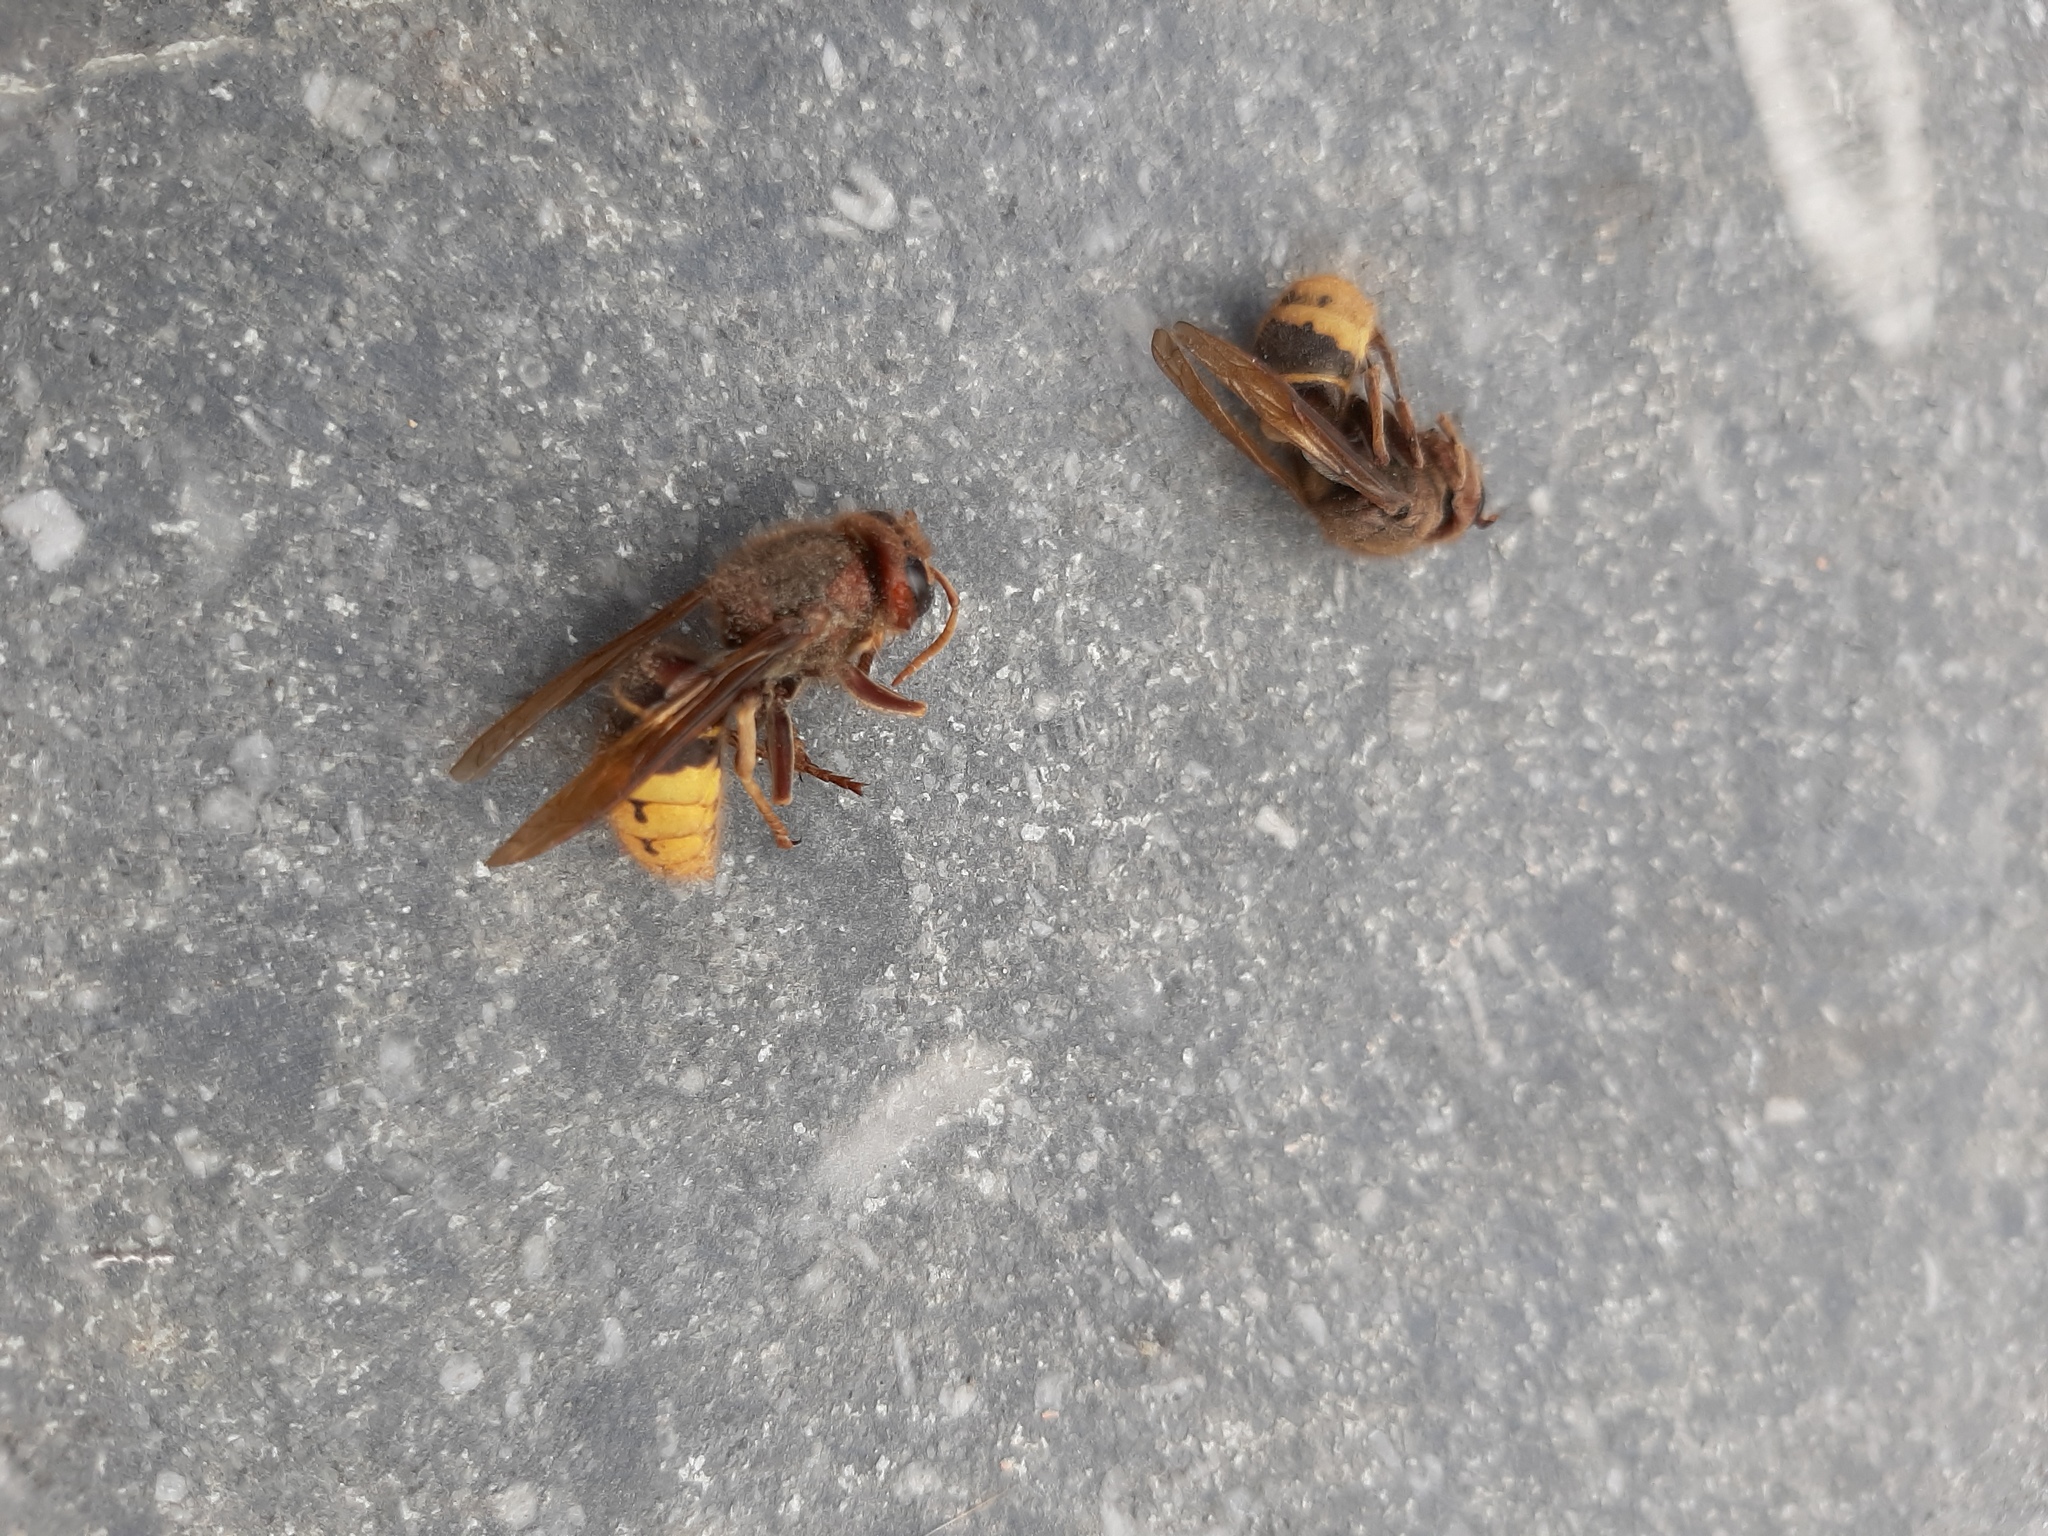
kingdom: Animalia
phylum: Arthropoda
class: Insecta
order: Hymenoptera
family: Vespidae
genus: Vespa
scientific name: Vespa crabro
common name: Hornet
